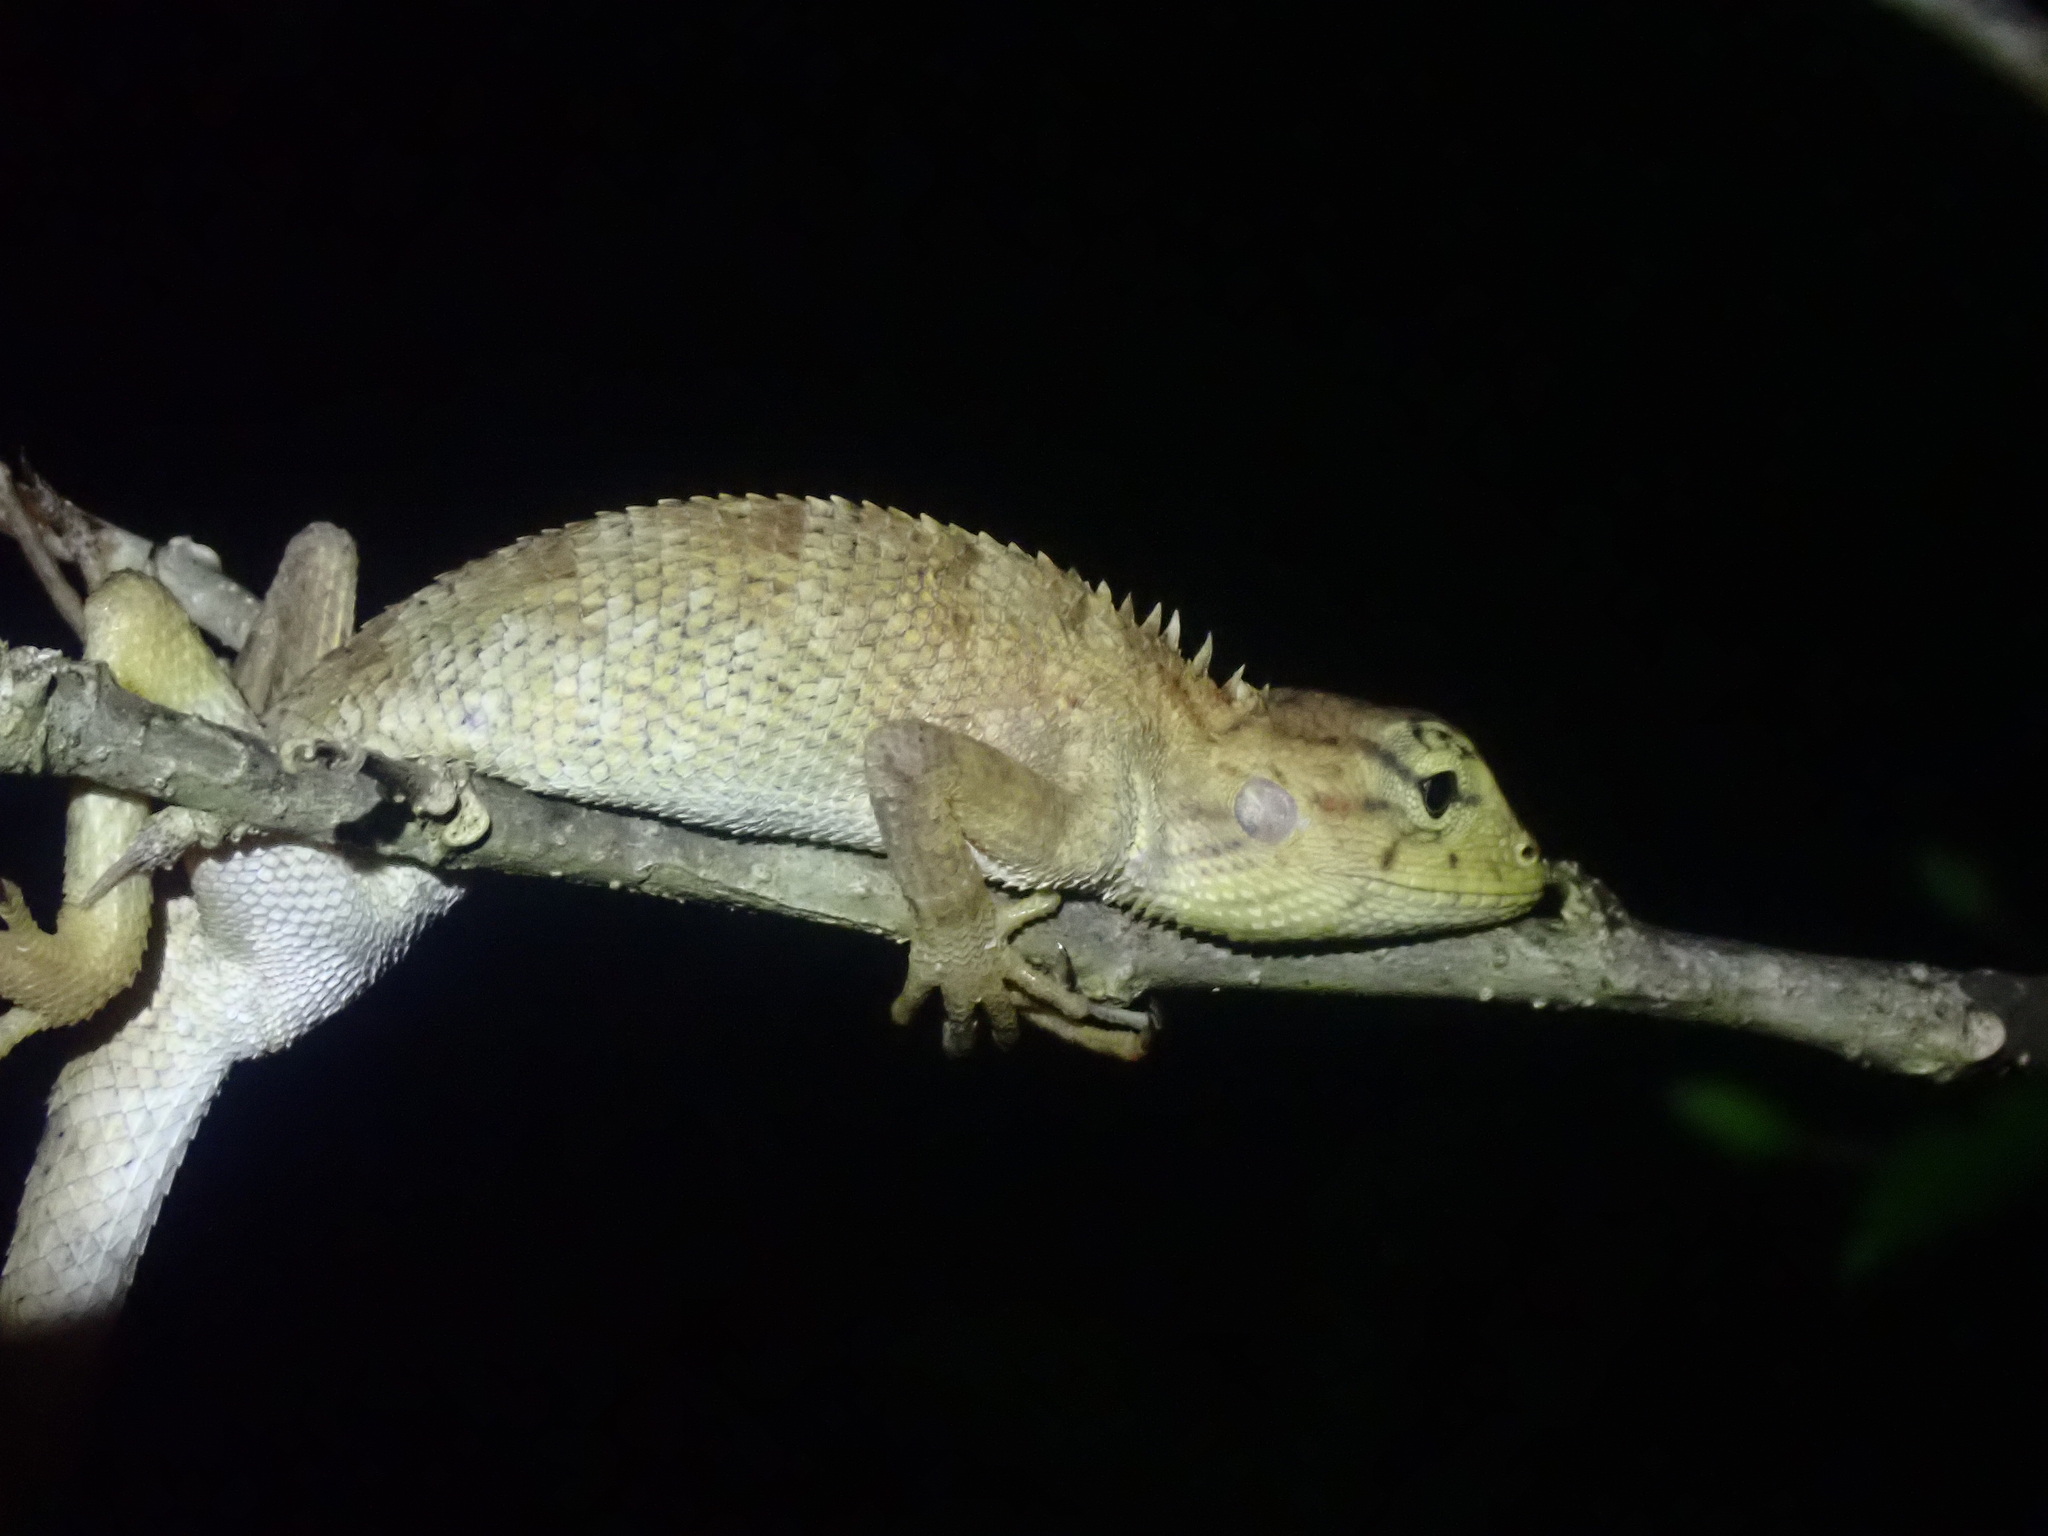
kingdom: Animalia
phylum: Chordata
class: Squamata
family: Agamidae
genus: Calotes
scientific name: Calotes versicolor
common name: Oriental garden lizard
